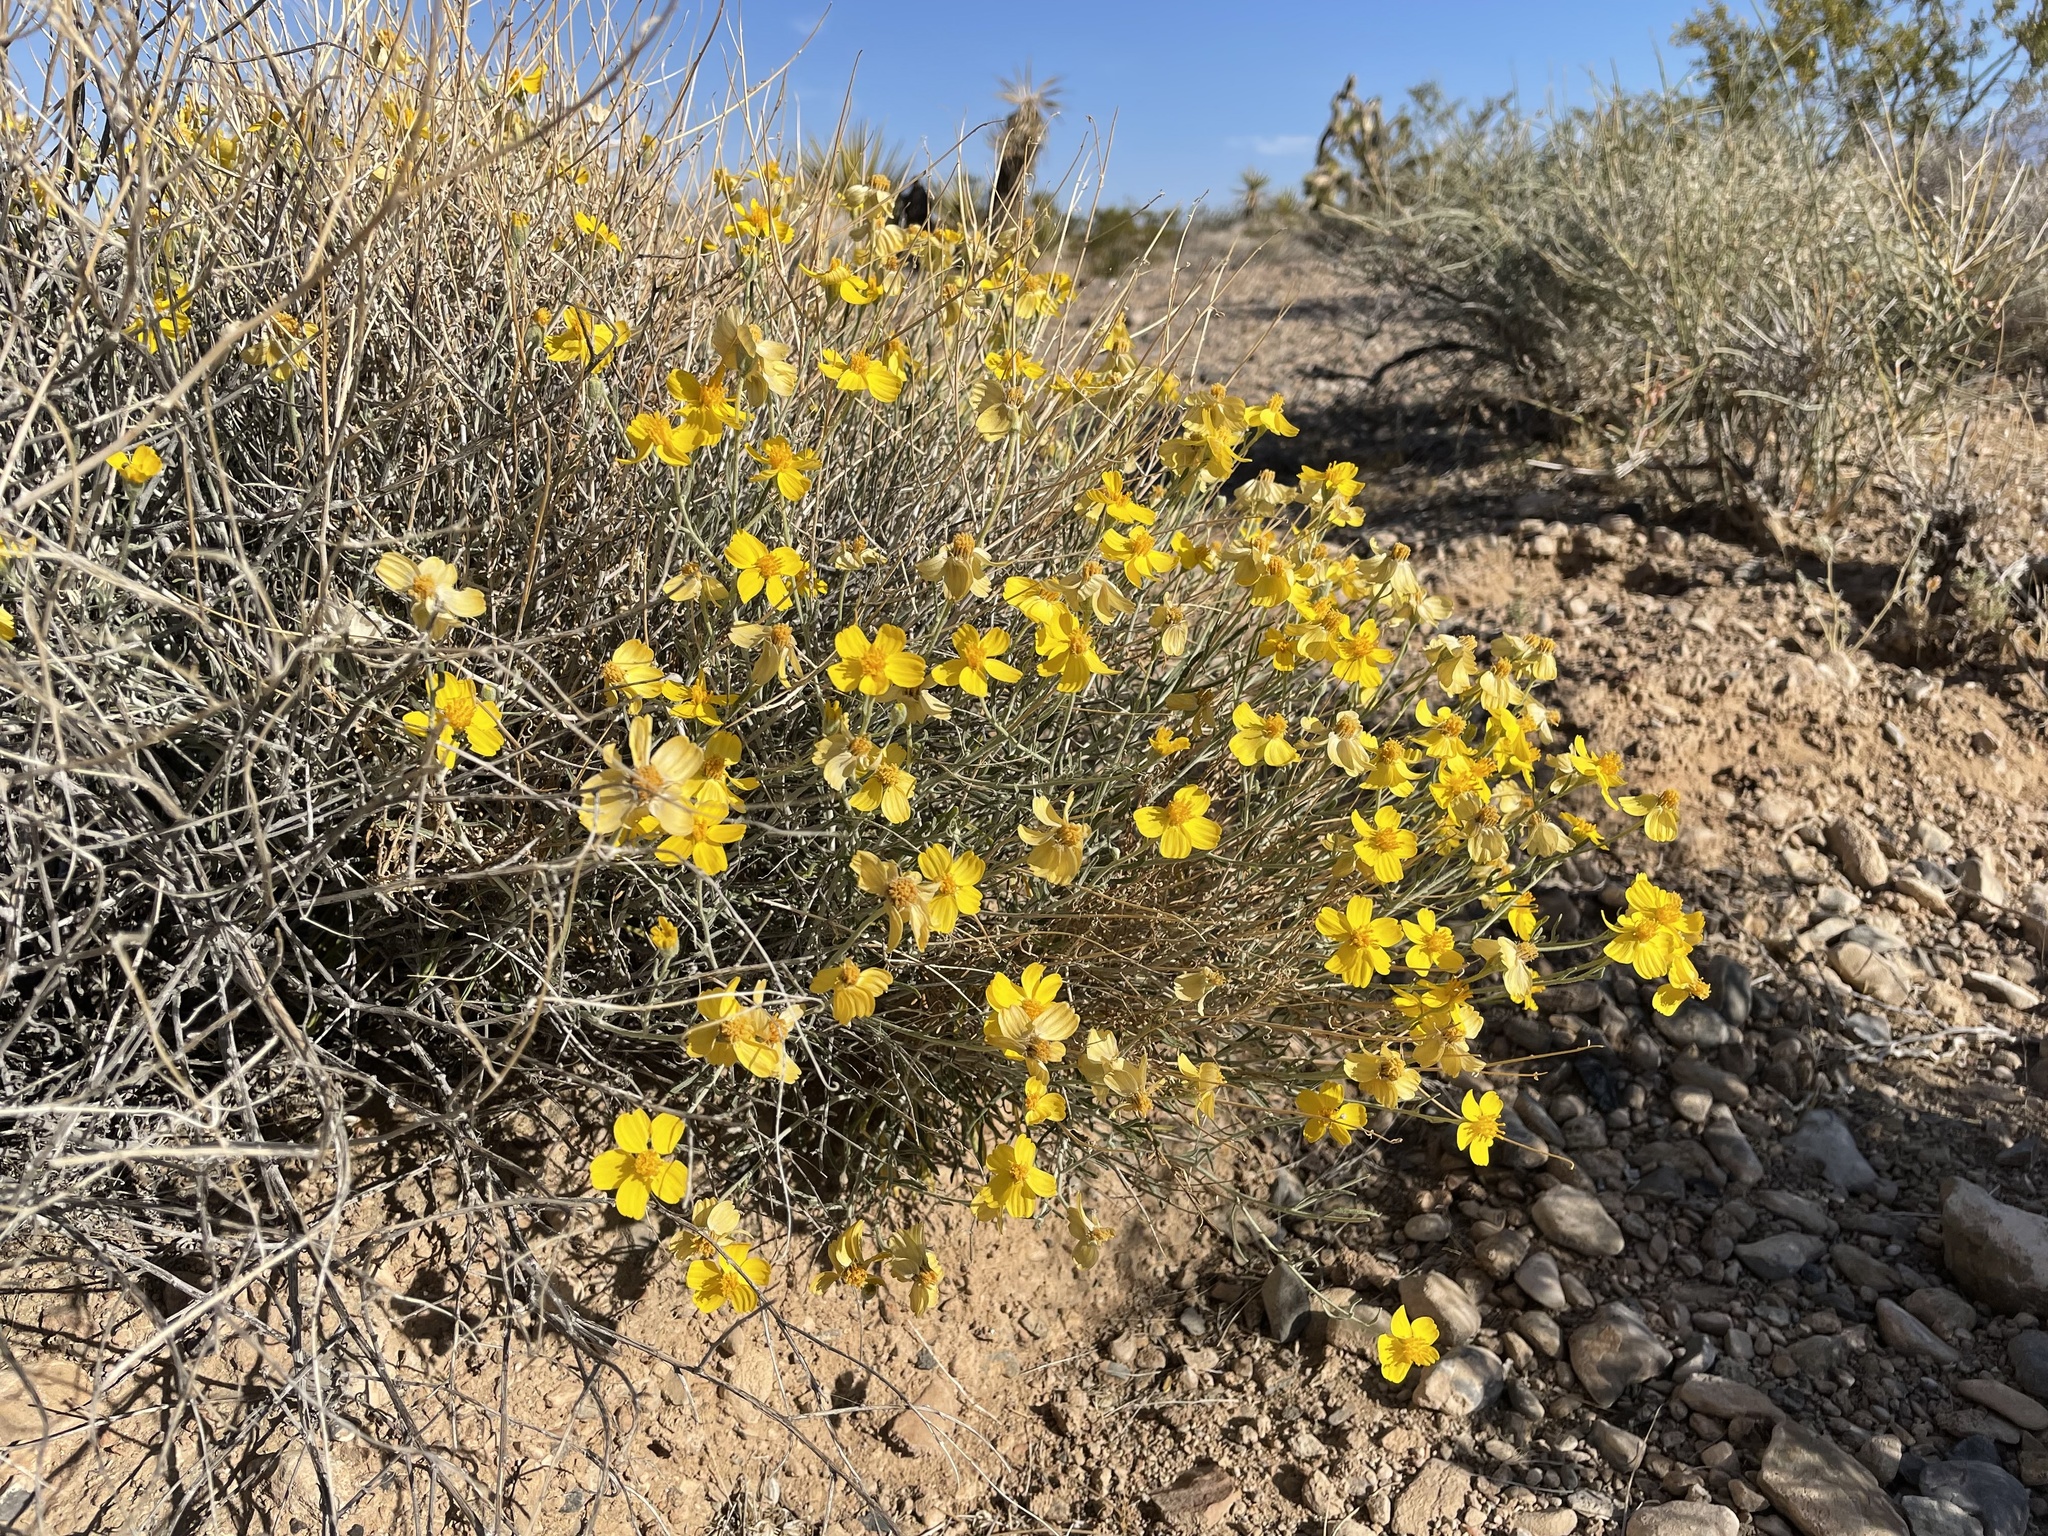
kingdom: Plantae
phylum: Tracheophyta
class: Magnoliopsida
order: Asterales
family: Asteraceae
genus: Psilostrophe
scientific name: Psilostrophe cooperi
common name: White-stem paper-flower
